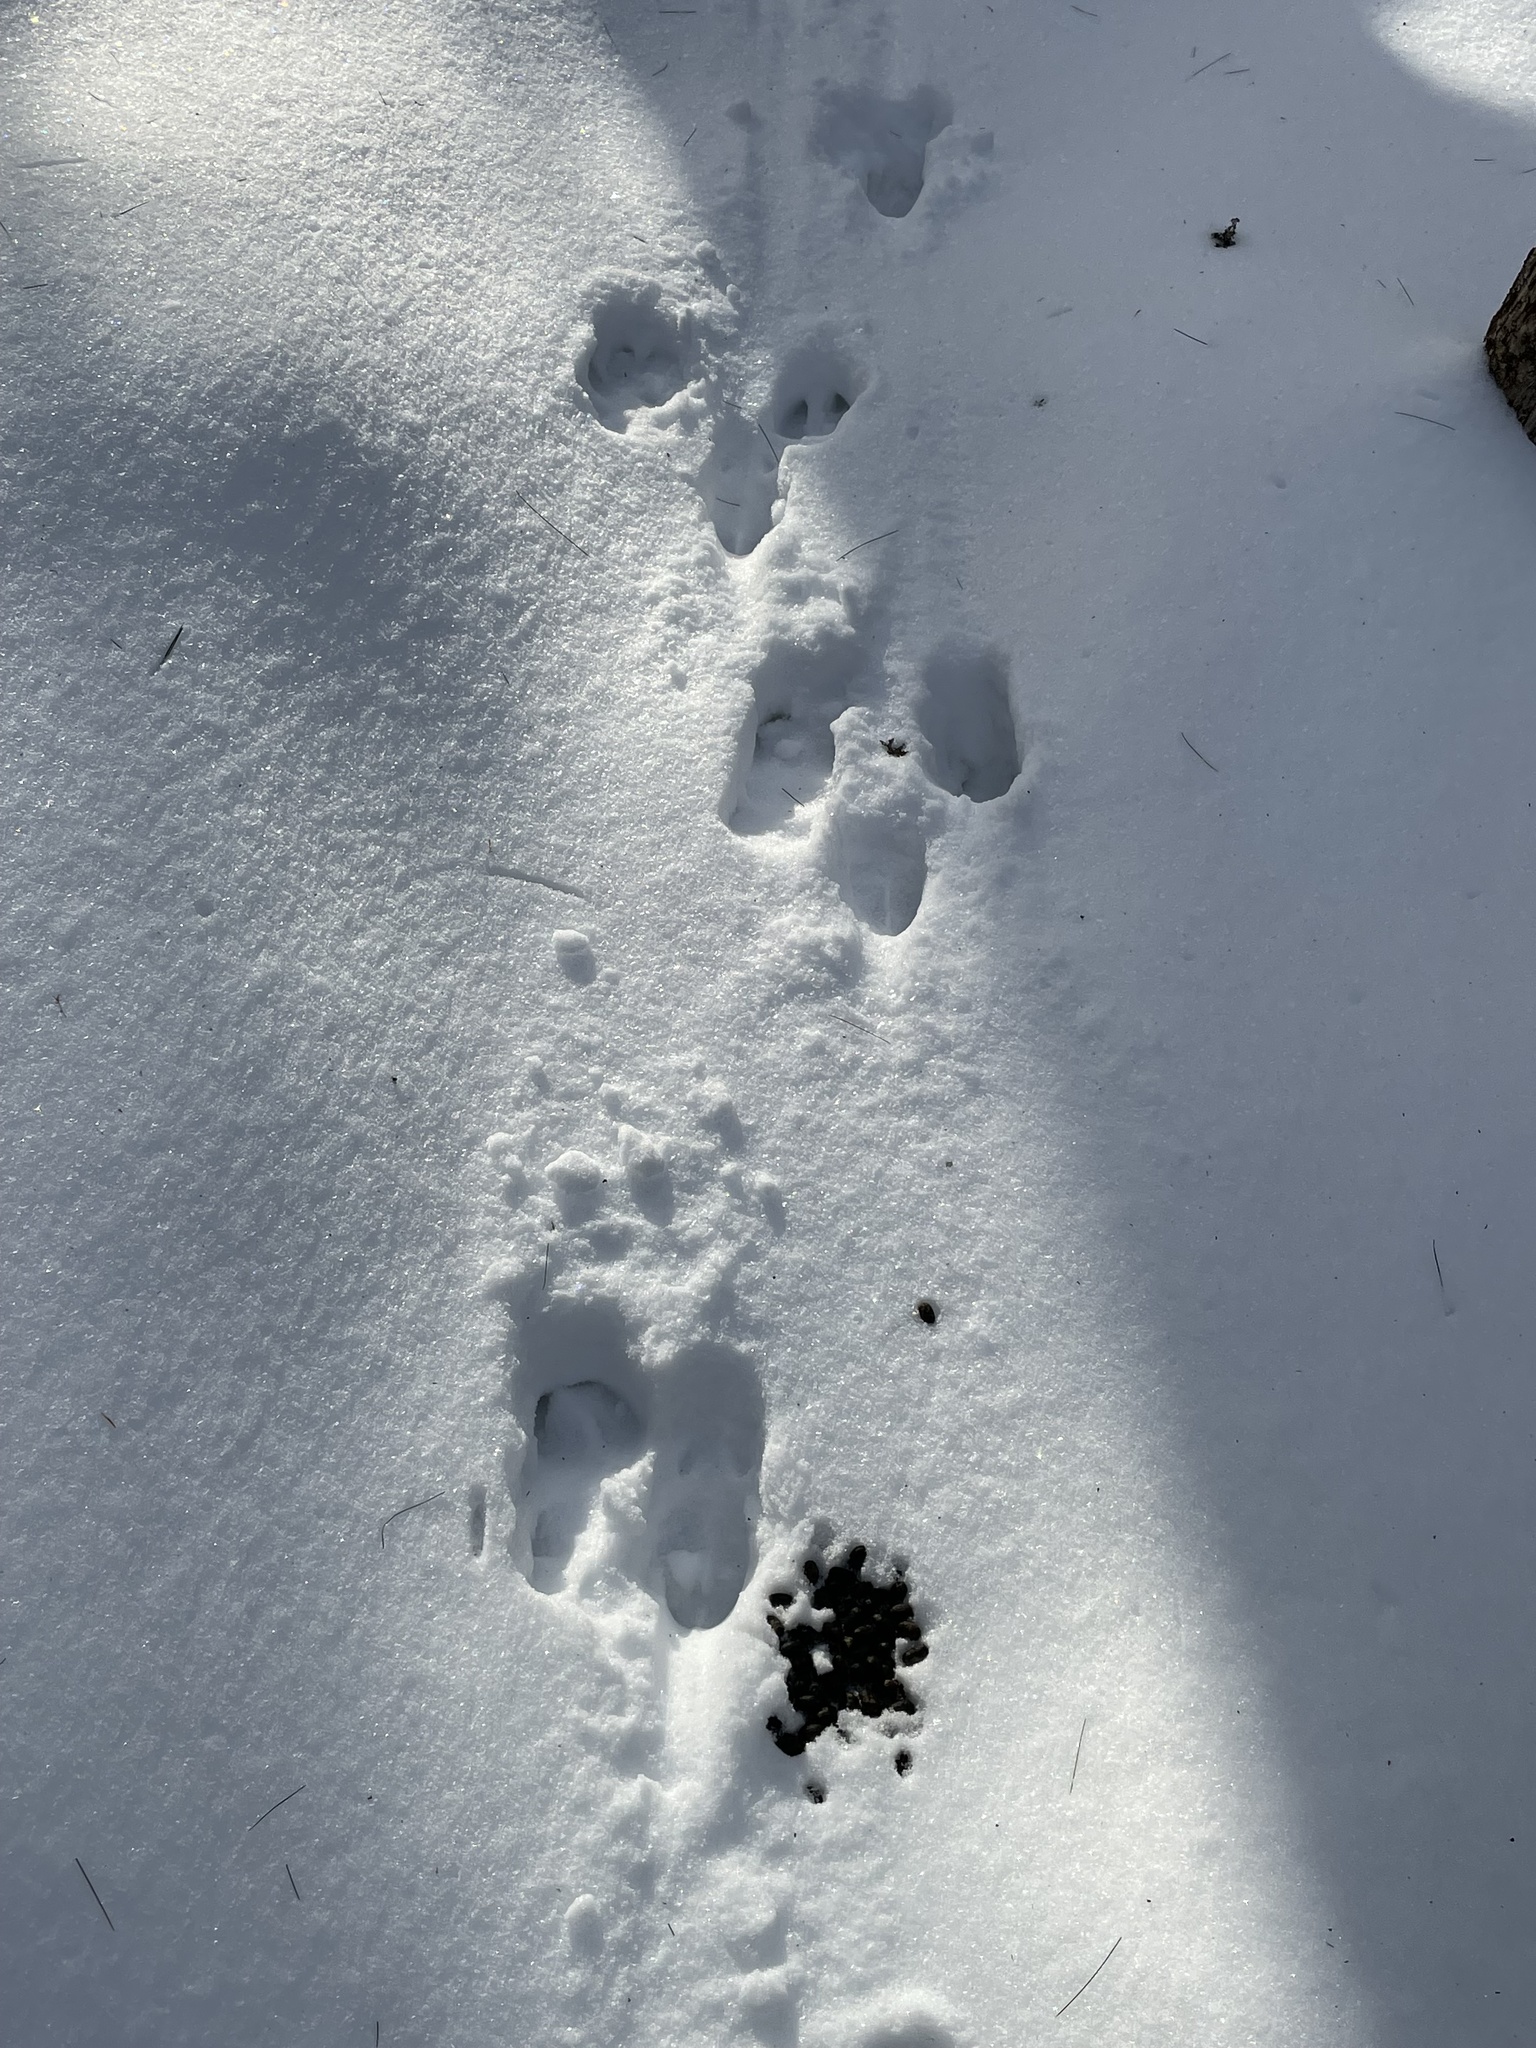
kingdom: Animalia
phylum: Chordata
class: Mammalia
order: Artiodactyla
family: Cervidae
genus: Odocoileus
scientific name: Odocoileus virginianus
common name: White-tailed deer
